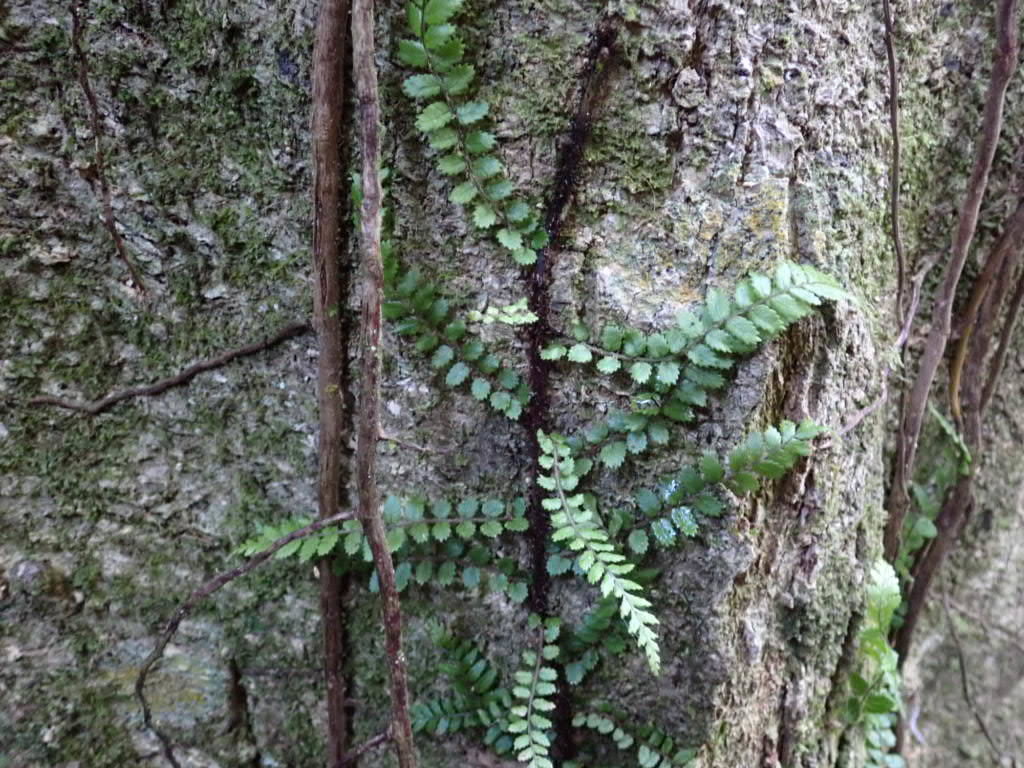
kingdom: Plantae
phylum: Tracheophyta
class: Polypodiopsida
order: Polypodiales
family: Blechnaceae
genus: Icarus
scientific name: Icarus filiformis
